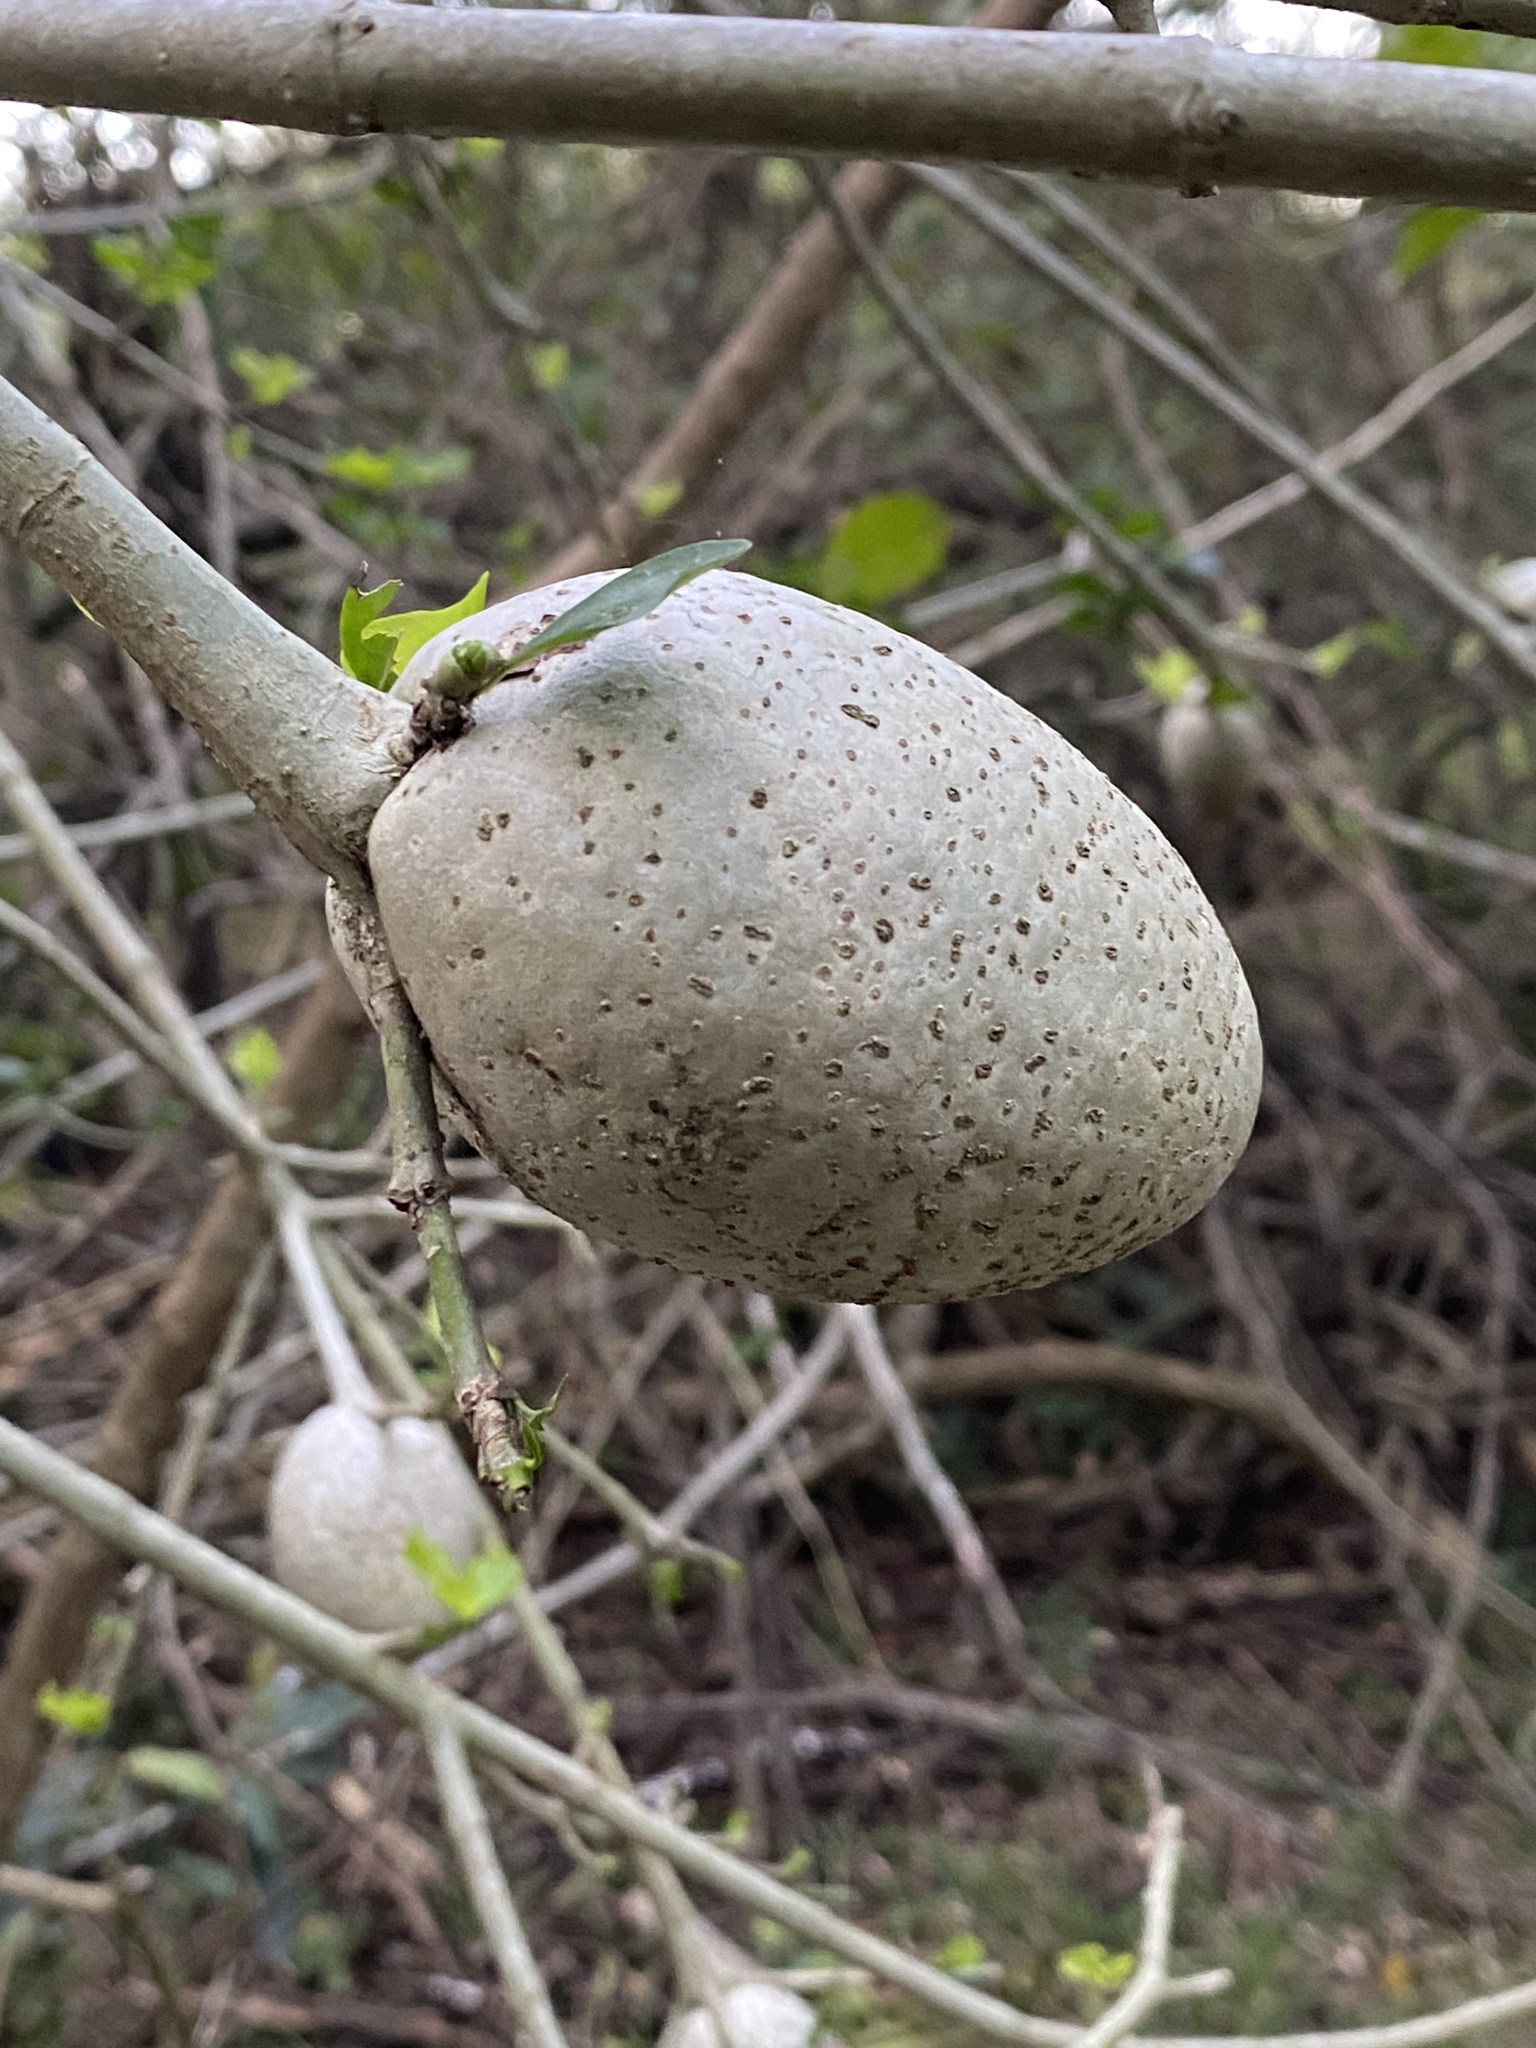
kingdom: Plantae
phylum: Tracheophyta
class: Magnoliopsida
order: Gentianales
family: Rubiaceae
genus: Gardenia
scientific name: Gardenia volkensii
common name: Common gardenia
